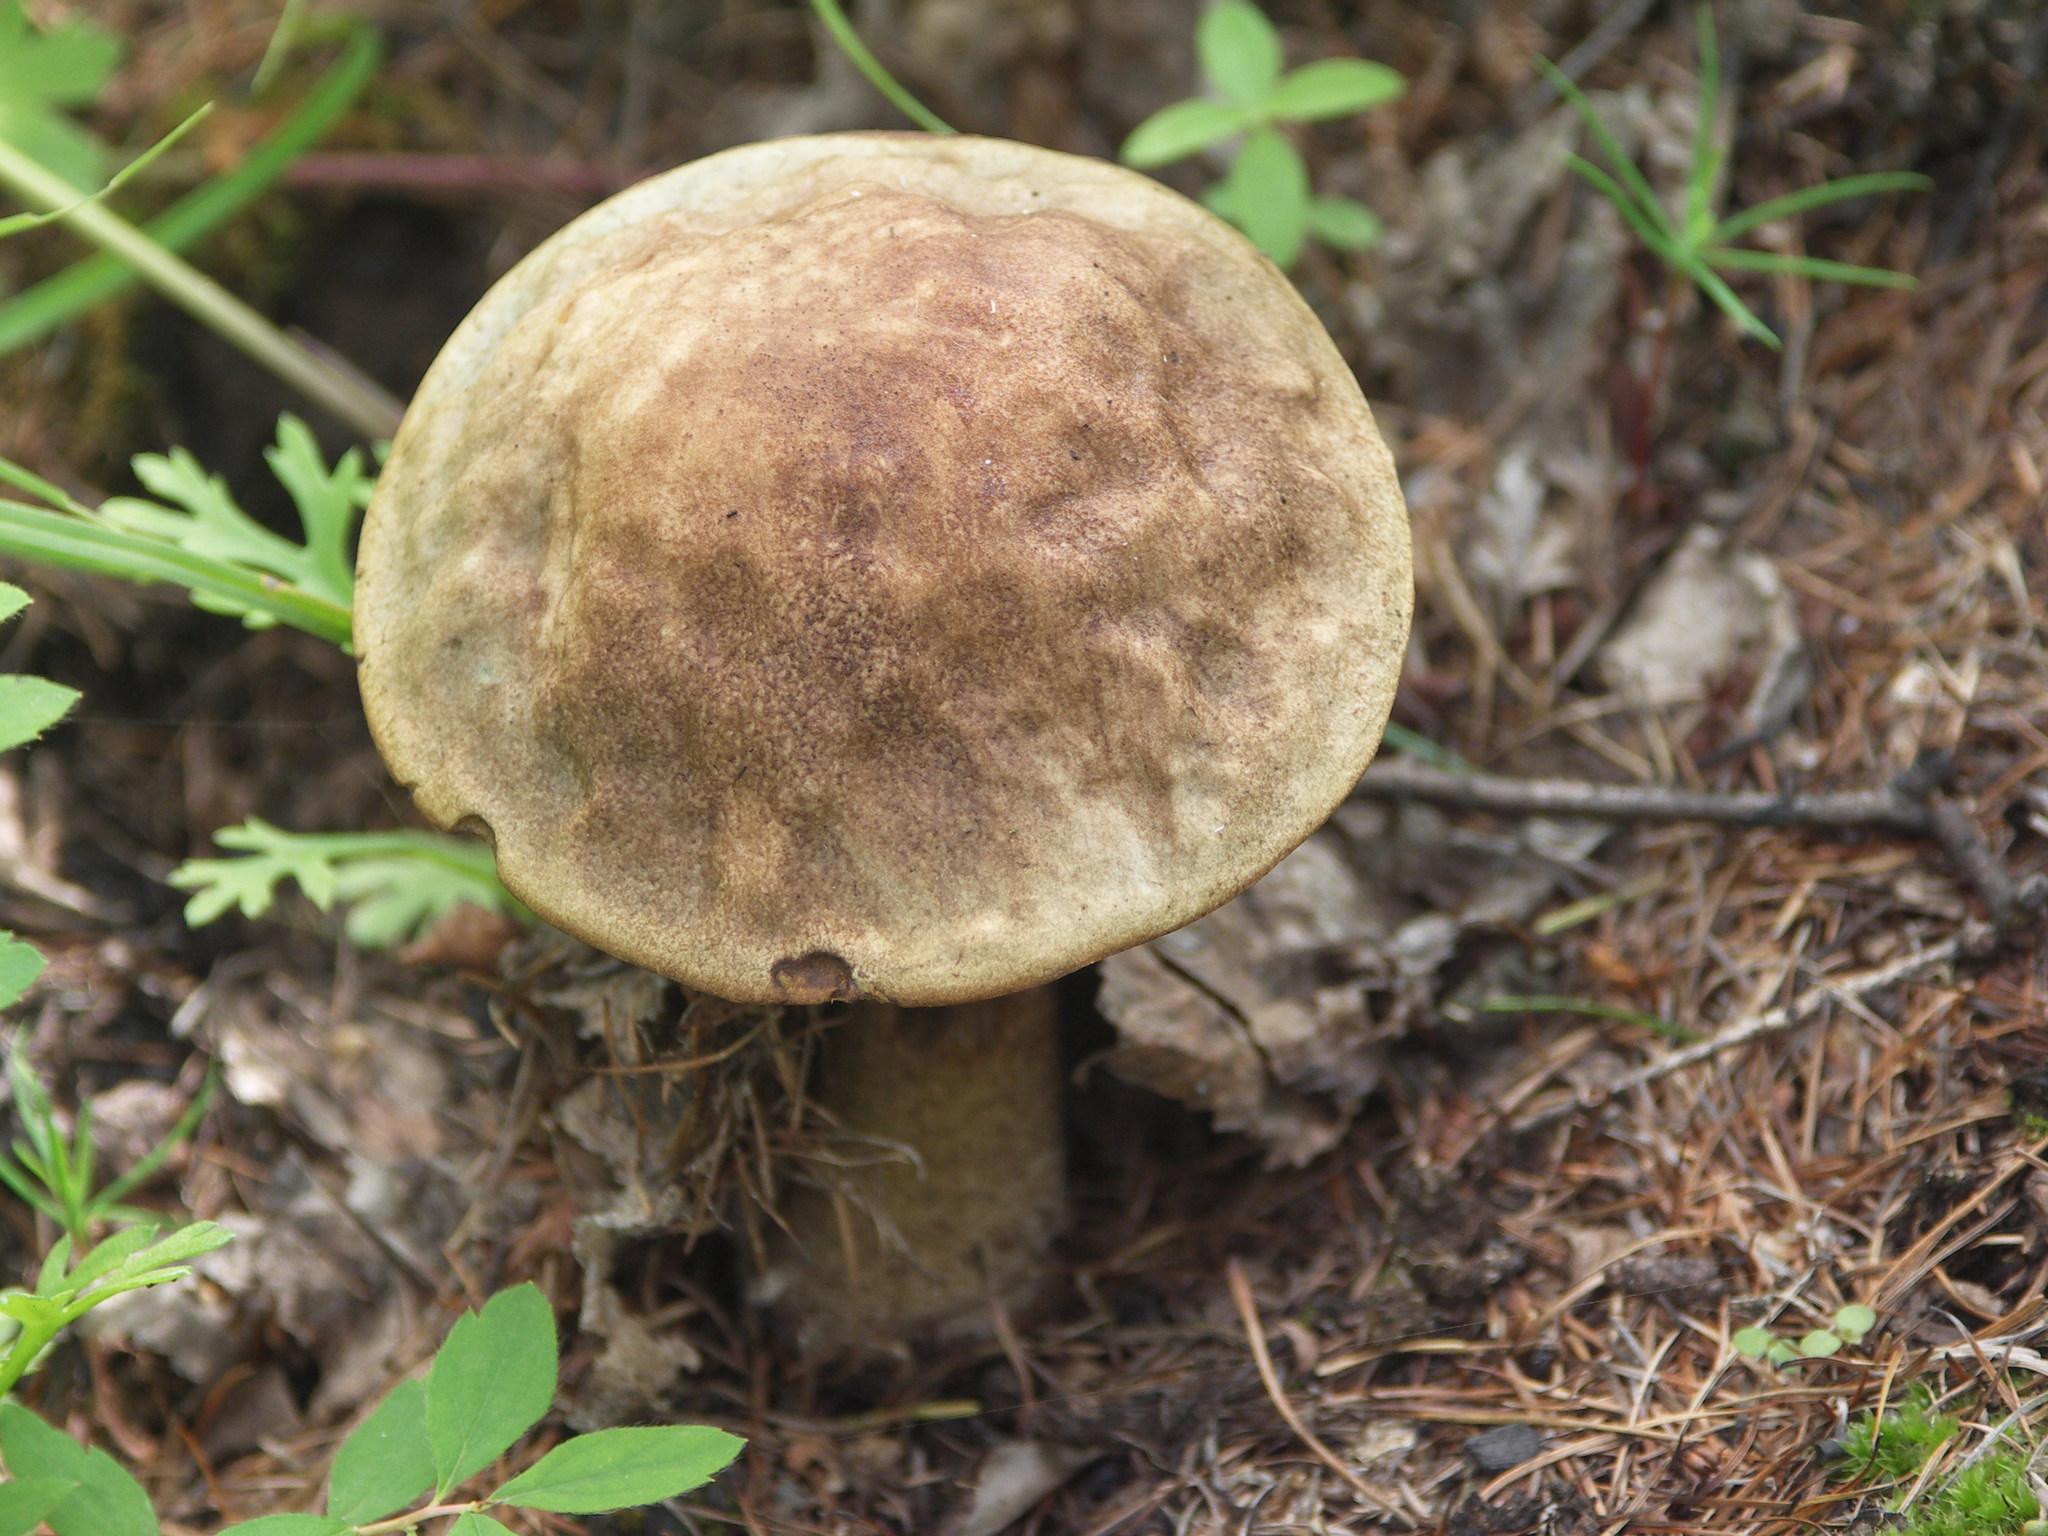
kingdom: Fungi
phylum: Basidiomycota
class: Agaricomycetes
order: Boletales
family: Boletaceae
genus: Leccinum
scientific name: Leccinum scabrum
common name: Blushing bolete
